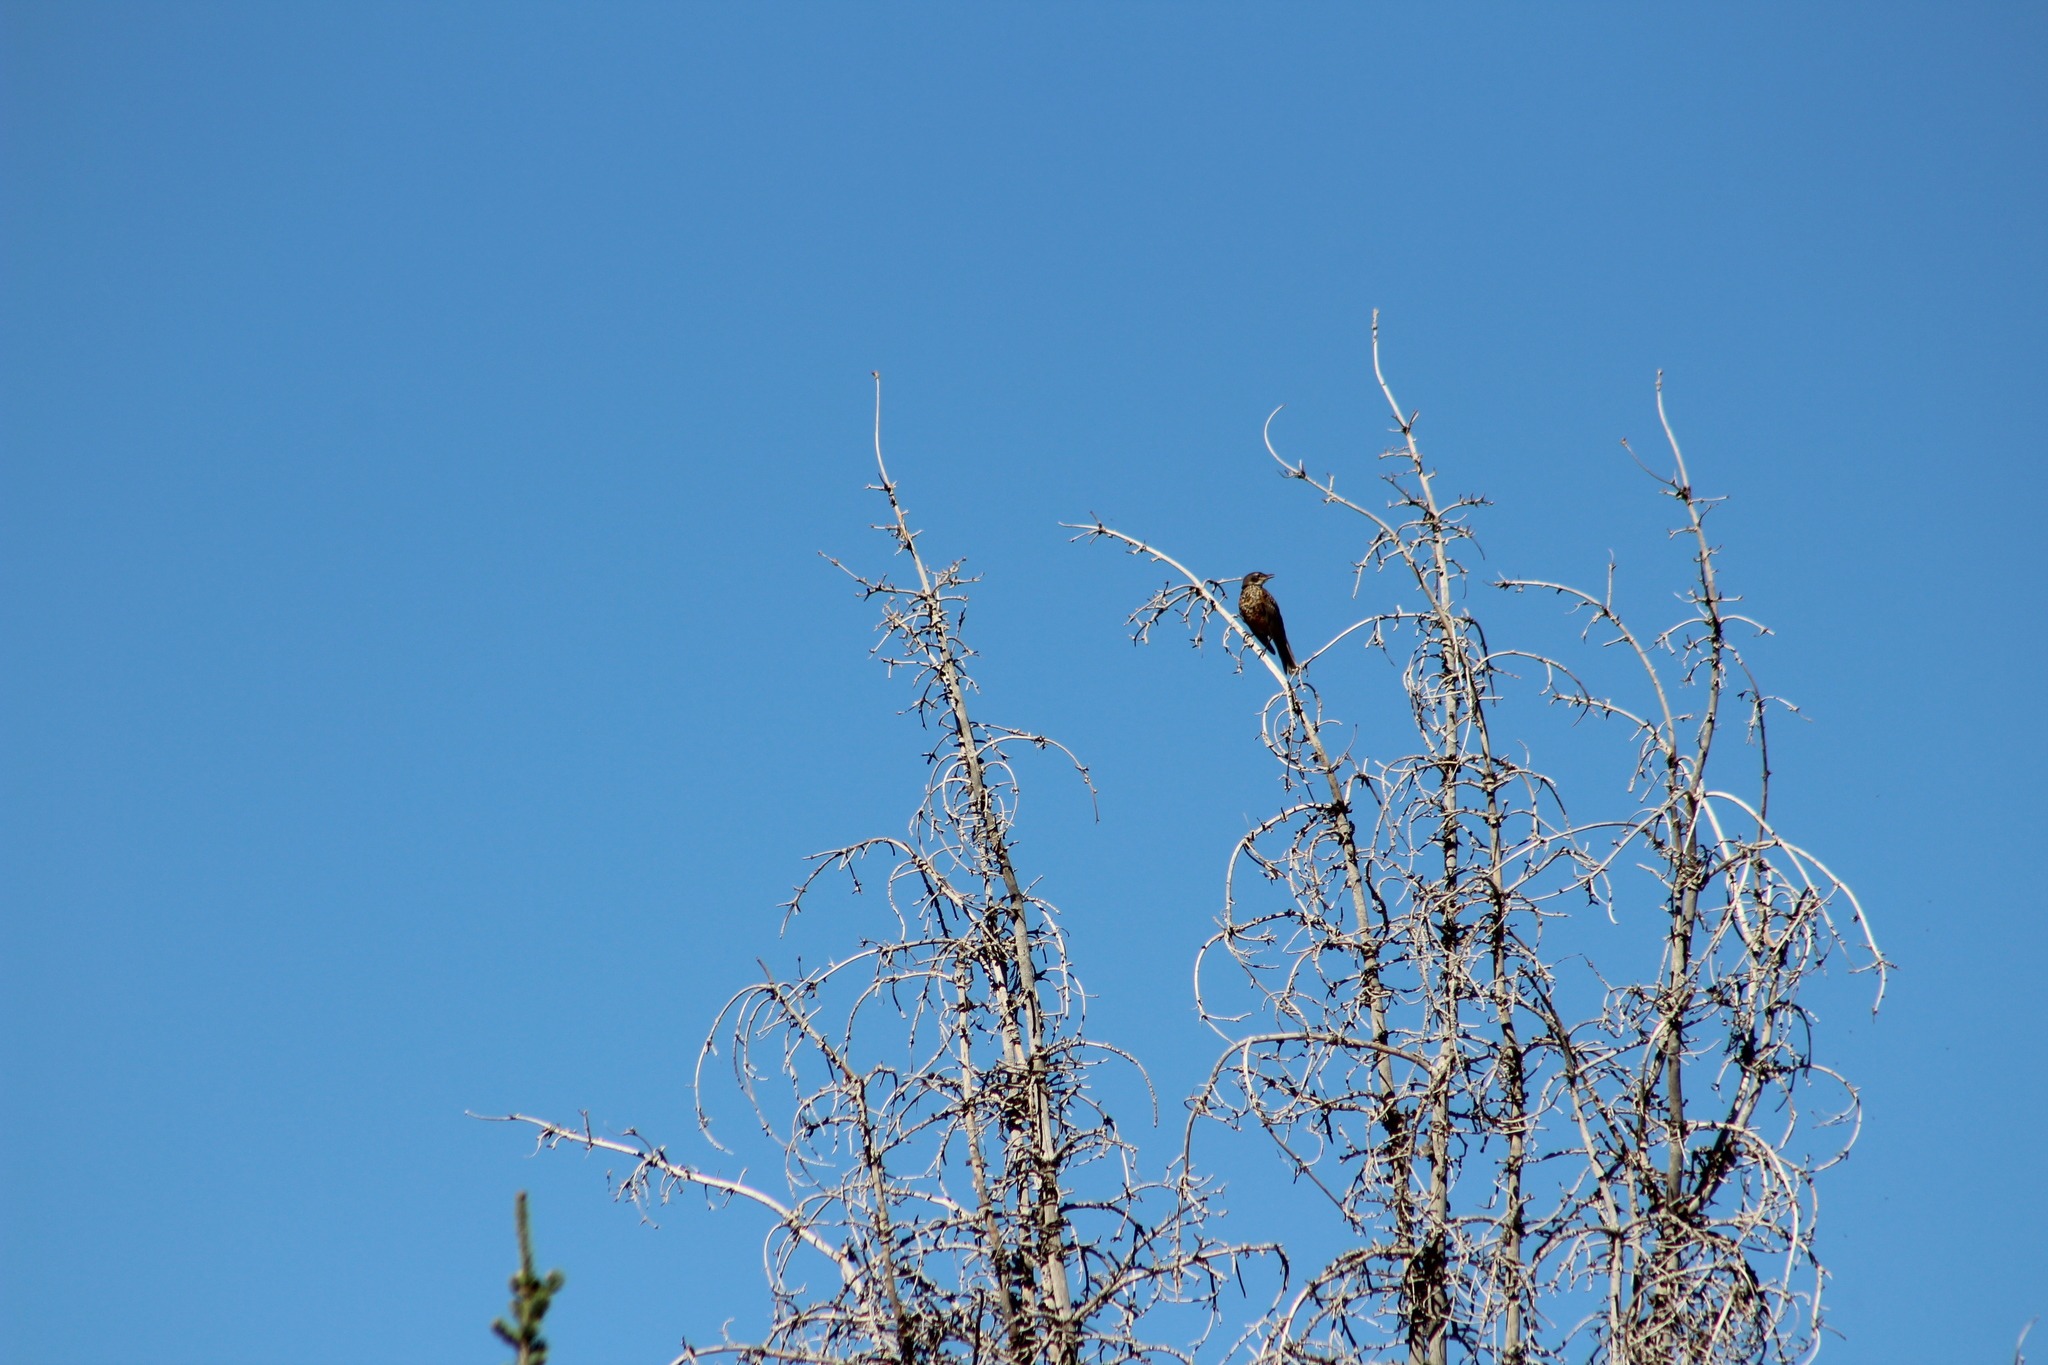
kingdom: Animalia
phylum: Chordata
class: Aves
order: Passeriformes
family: Turdidae
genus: Turdus
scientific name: Turdus migratorius
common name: American robin
